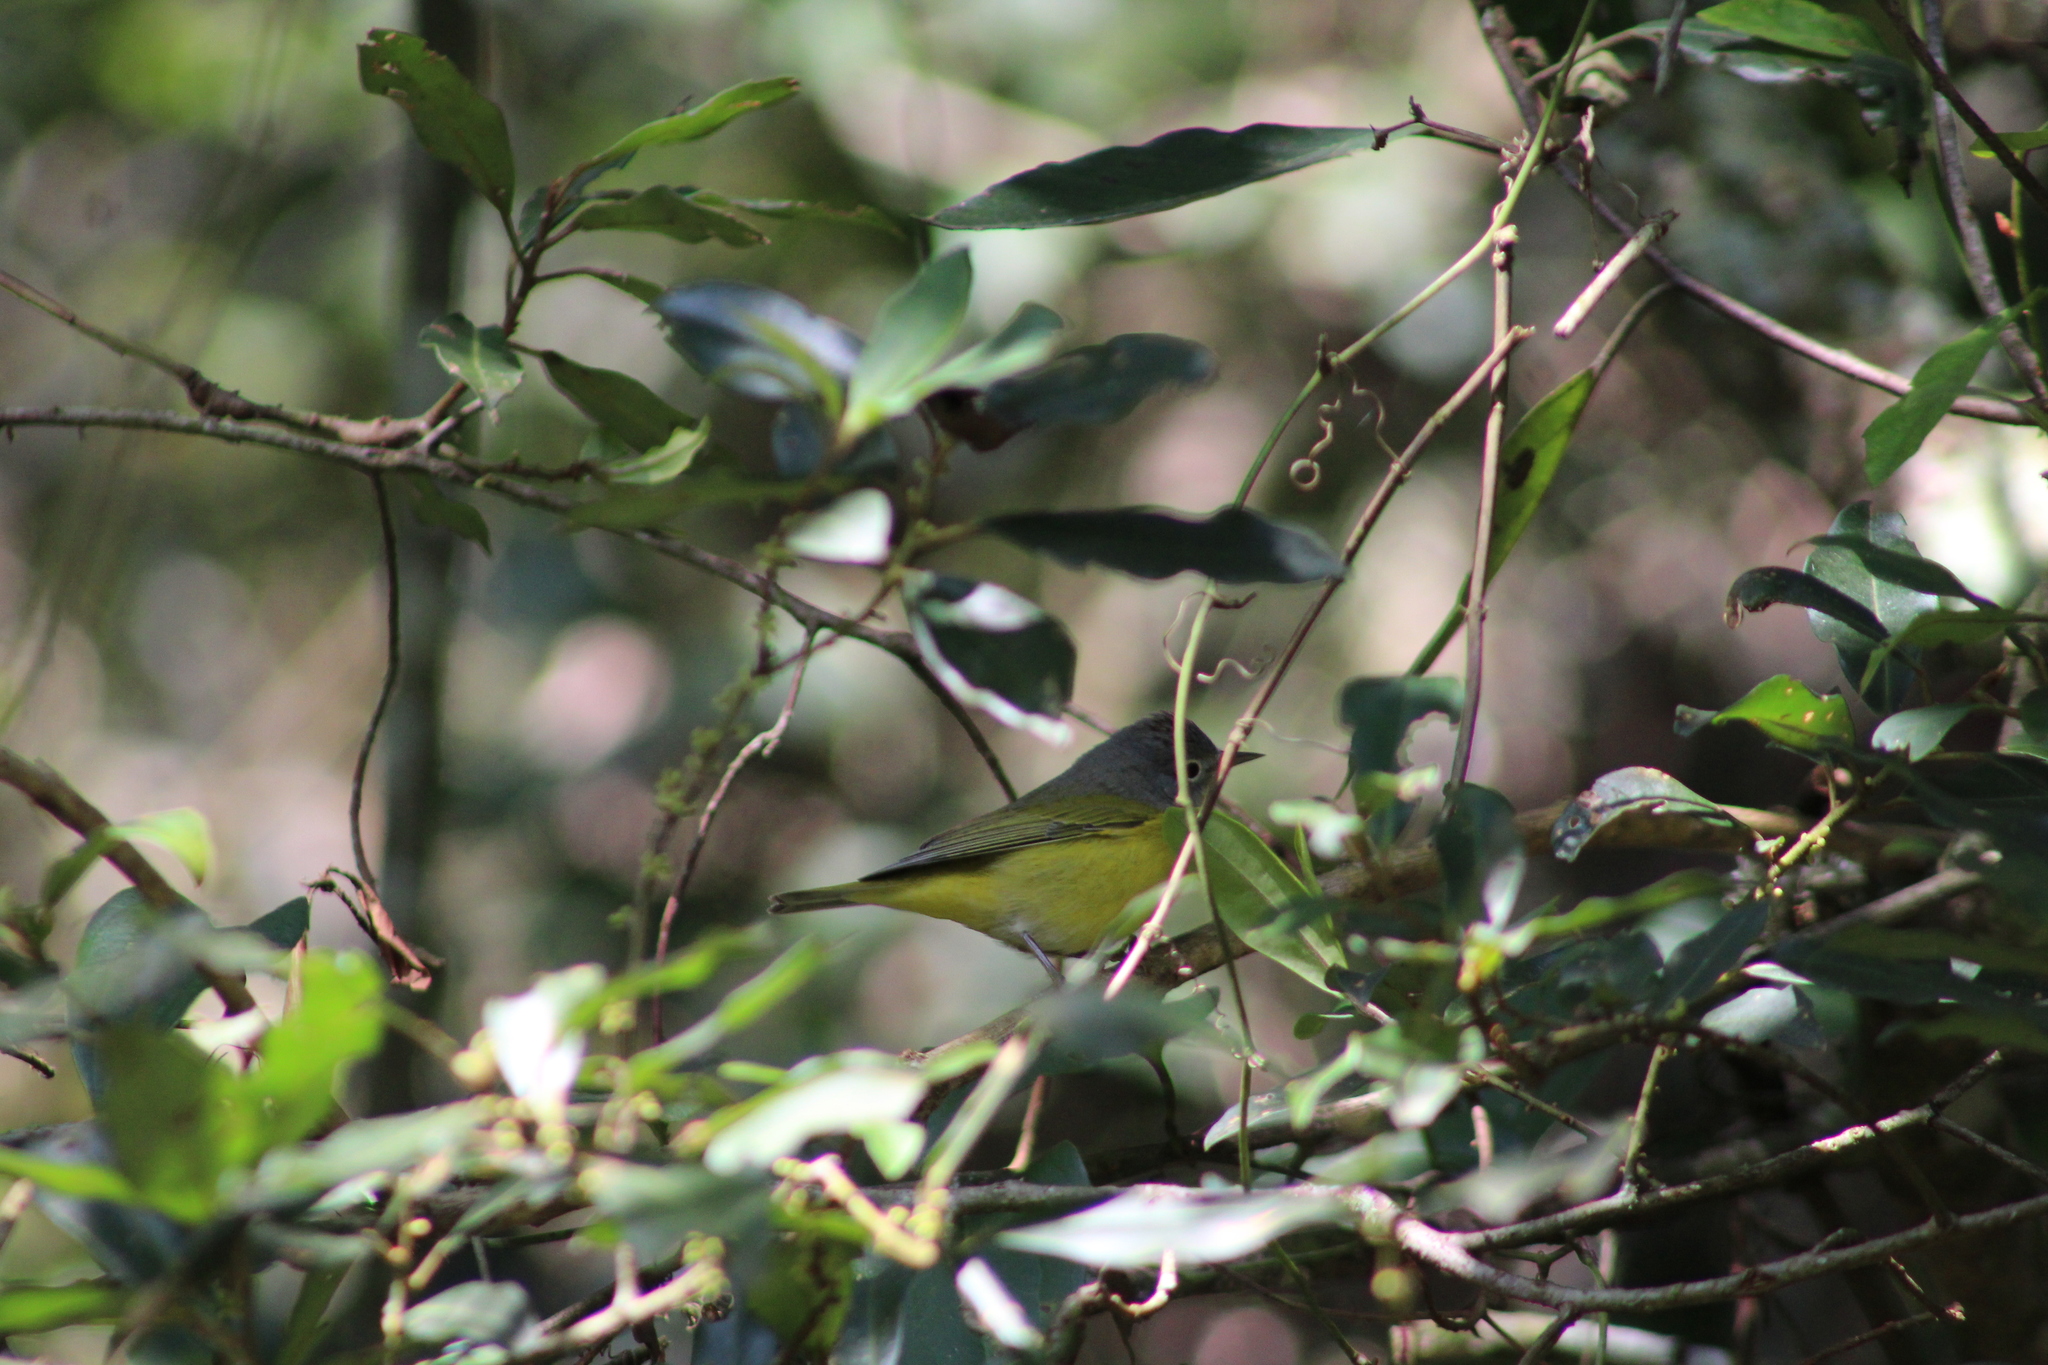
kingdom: Animalia
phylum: Chordata
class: Aves
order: Passeriformes
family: Parulidae
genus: Leiothlypis
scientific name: Leiothlypis ruficapilla
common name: Nashville warbler
